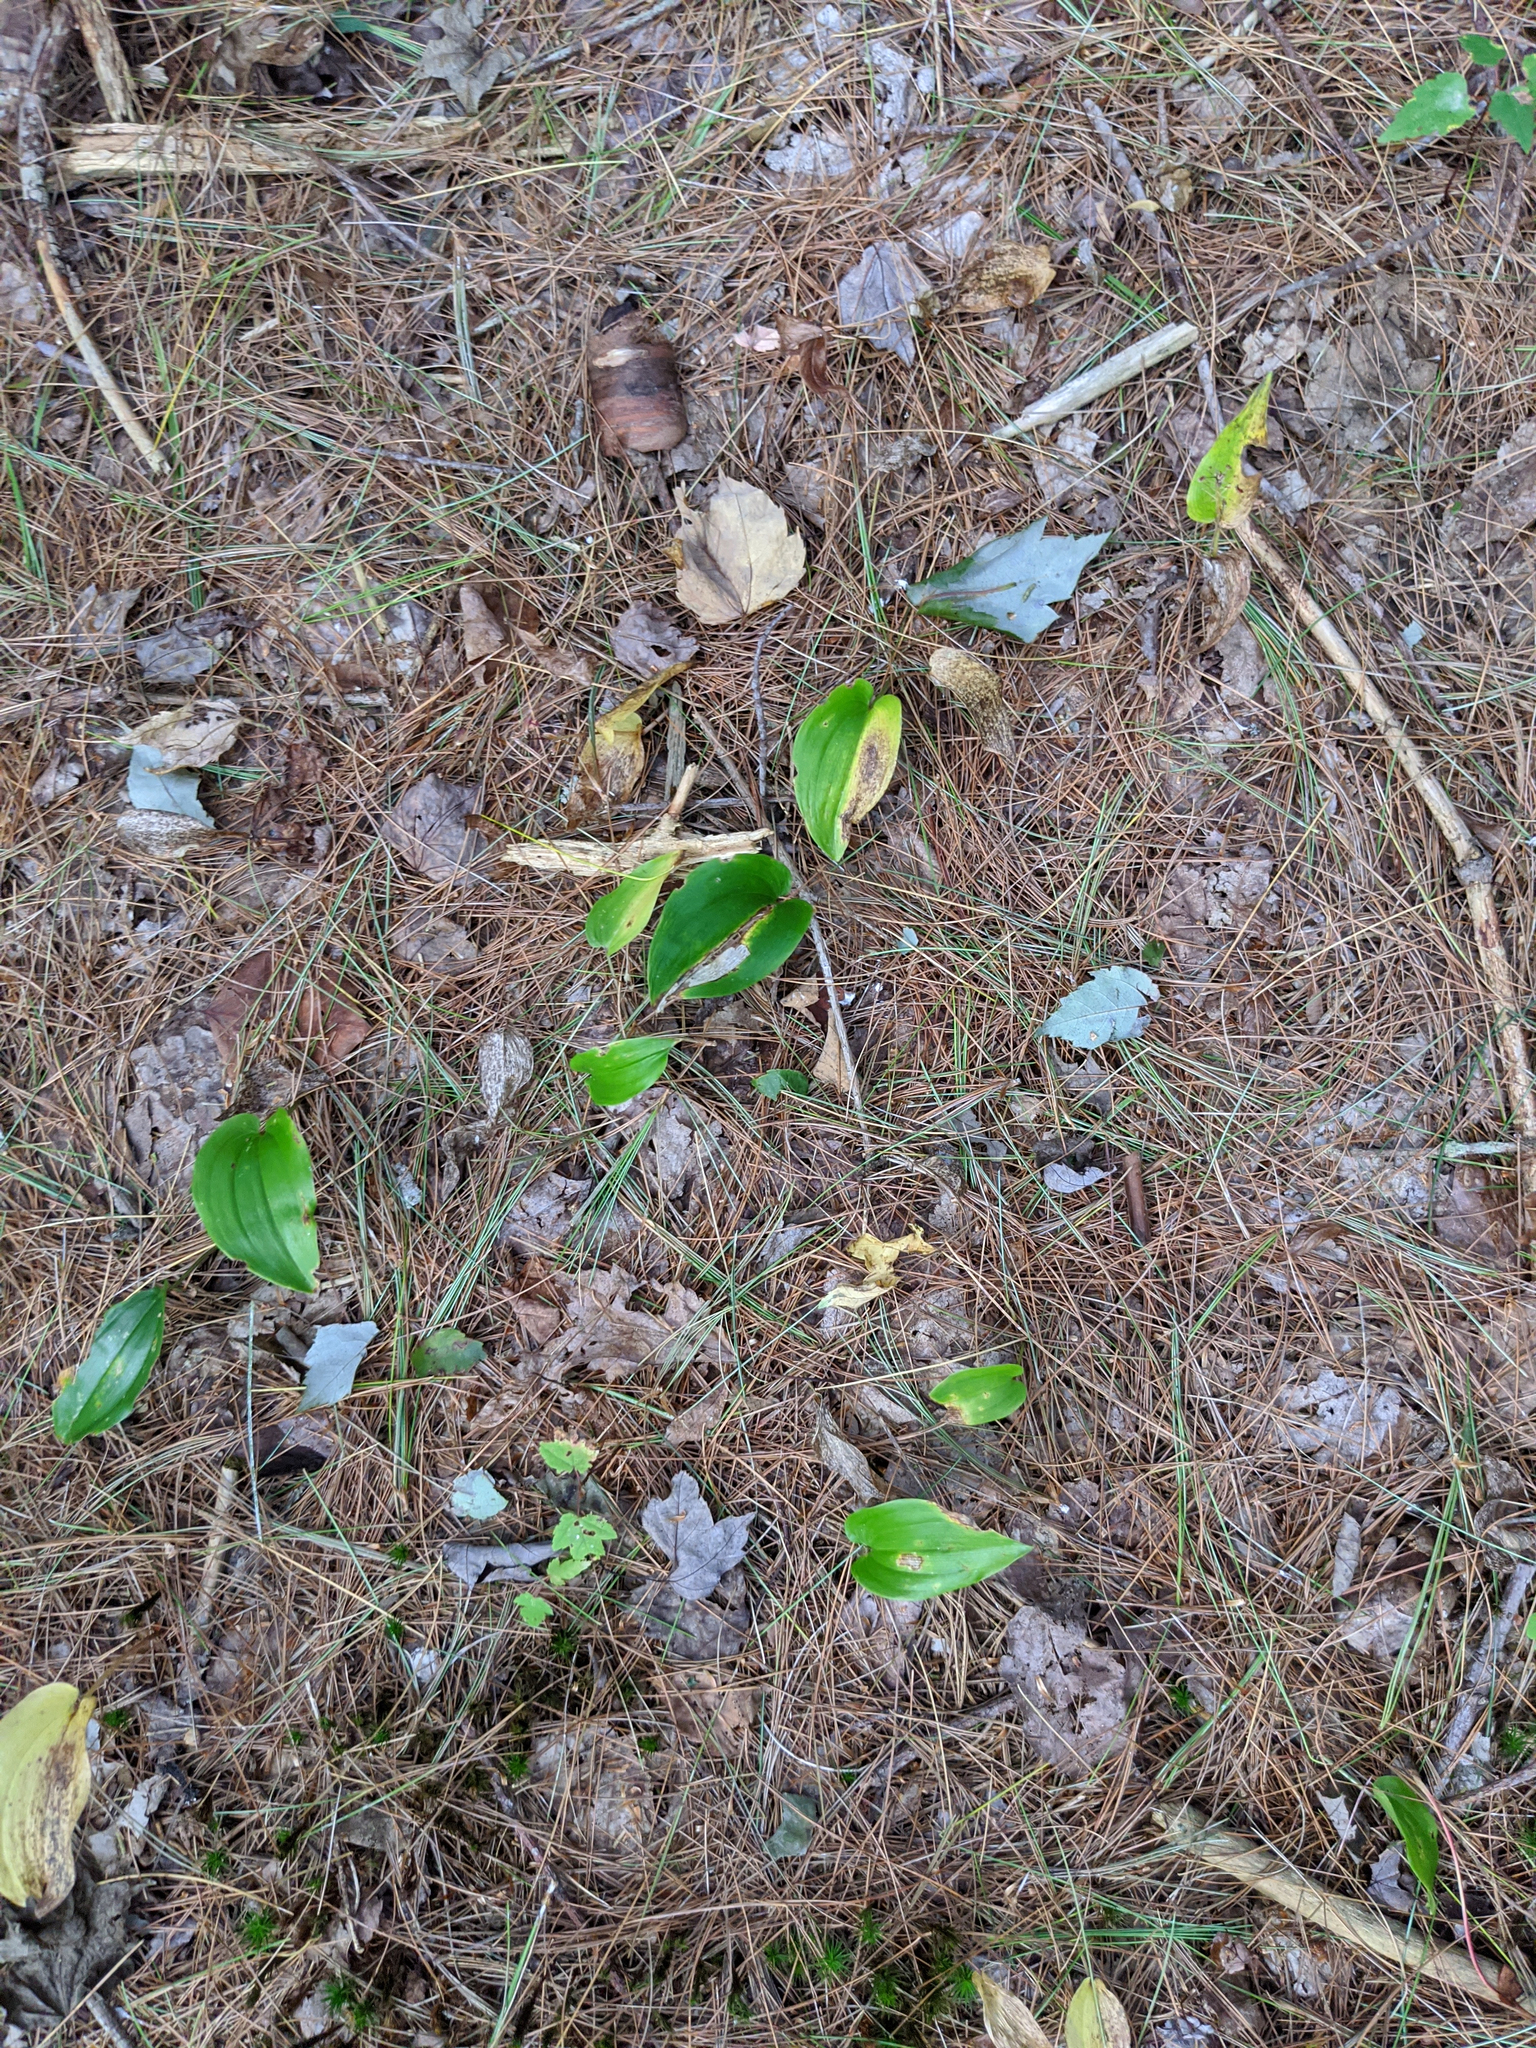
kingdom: Plantae
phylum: Tracheophyta
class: Liliopsida
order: Asparagales
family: Asparagaceae
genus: Maianthemum
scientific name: Maianthemum canadense
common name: False lily-of-the-valley
